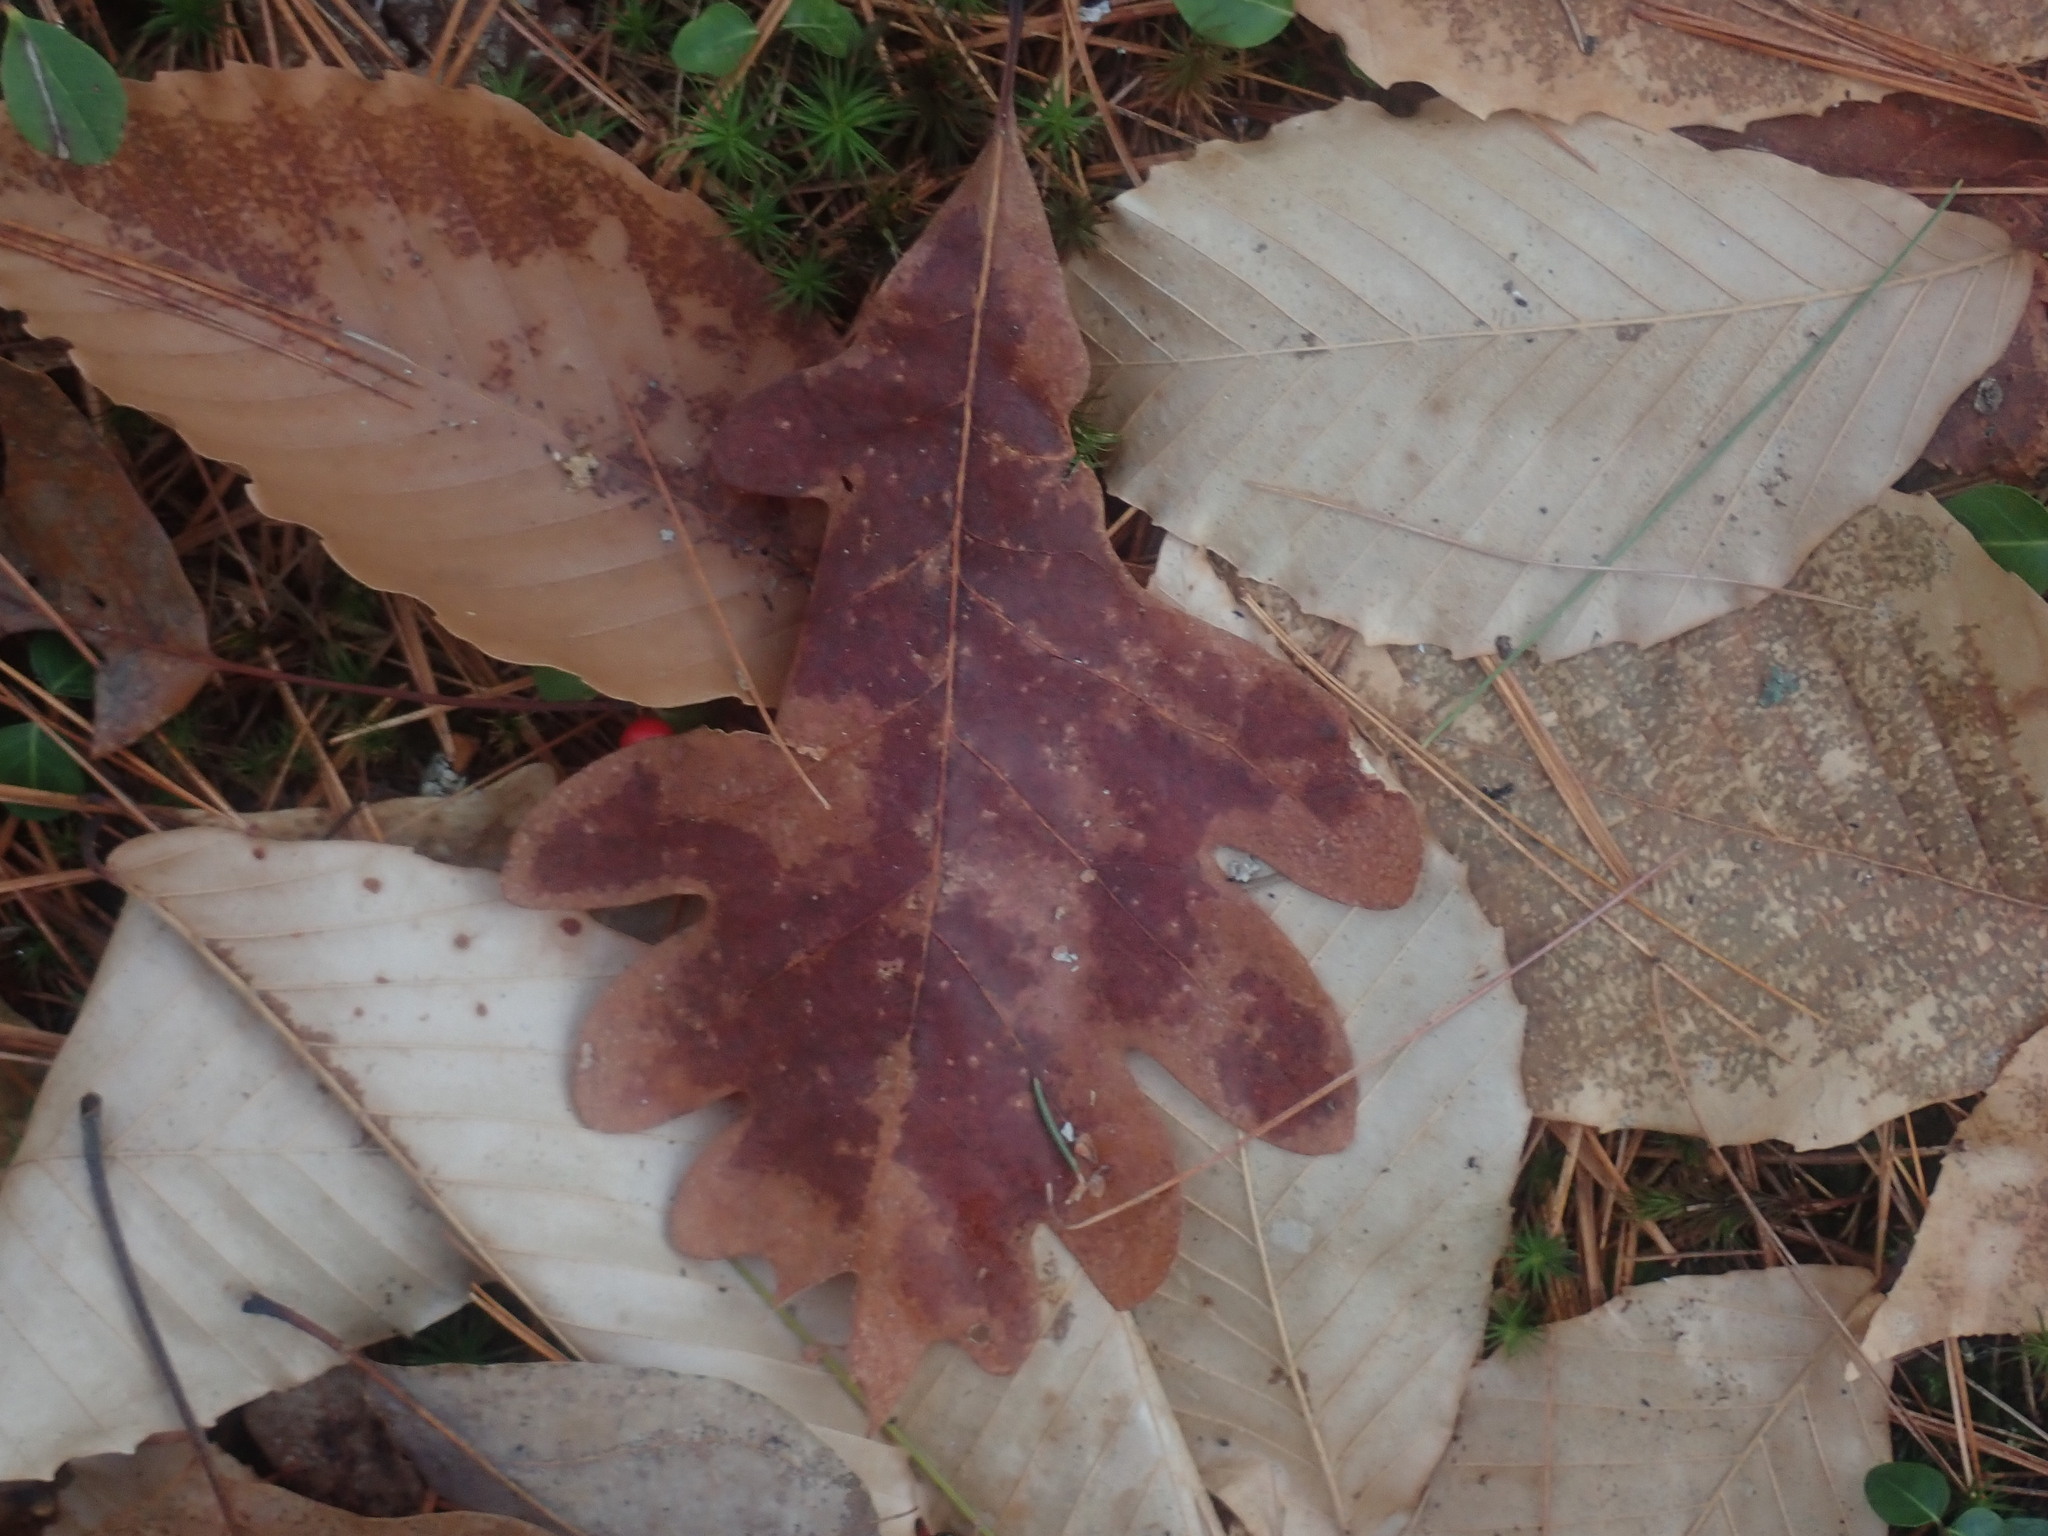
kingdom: Plantae
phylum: Tracheophyta
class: Magnoliopsida
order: Fagales
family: Fagaceae
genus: Quercus
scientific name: Quercus alba
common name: White oak
